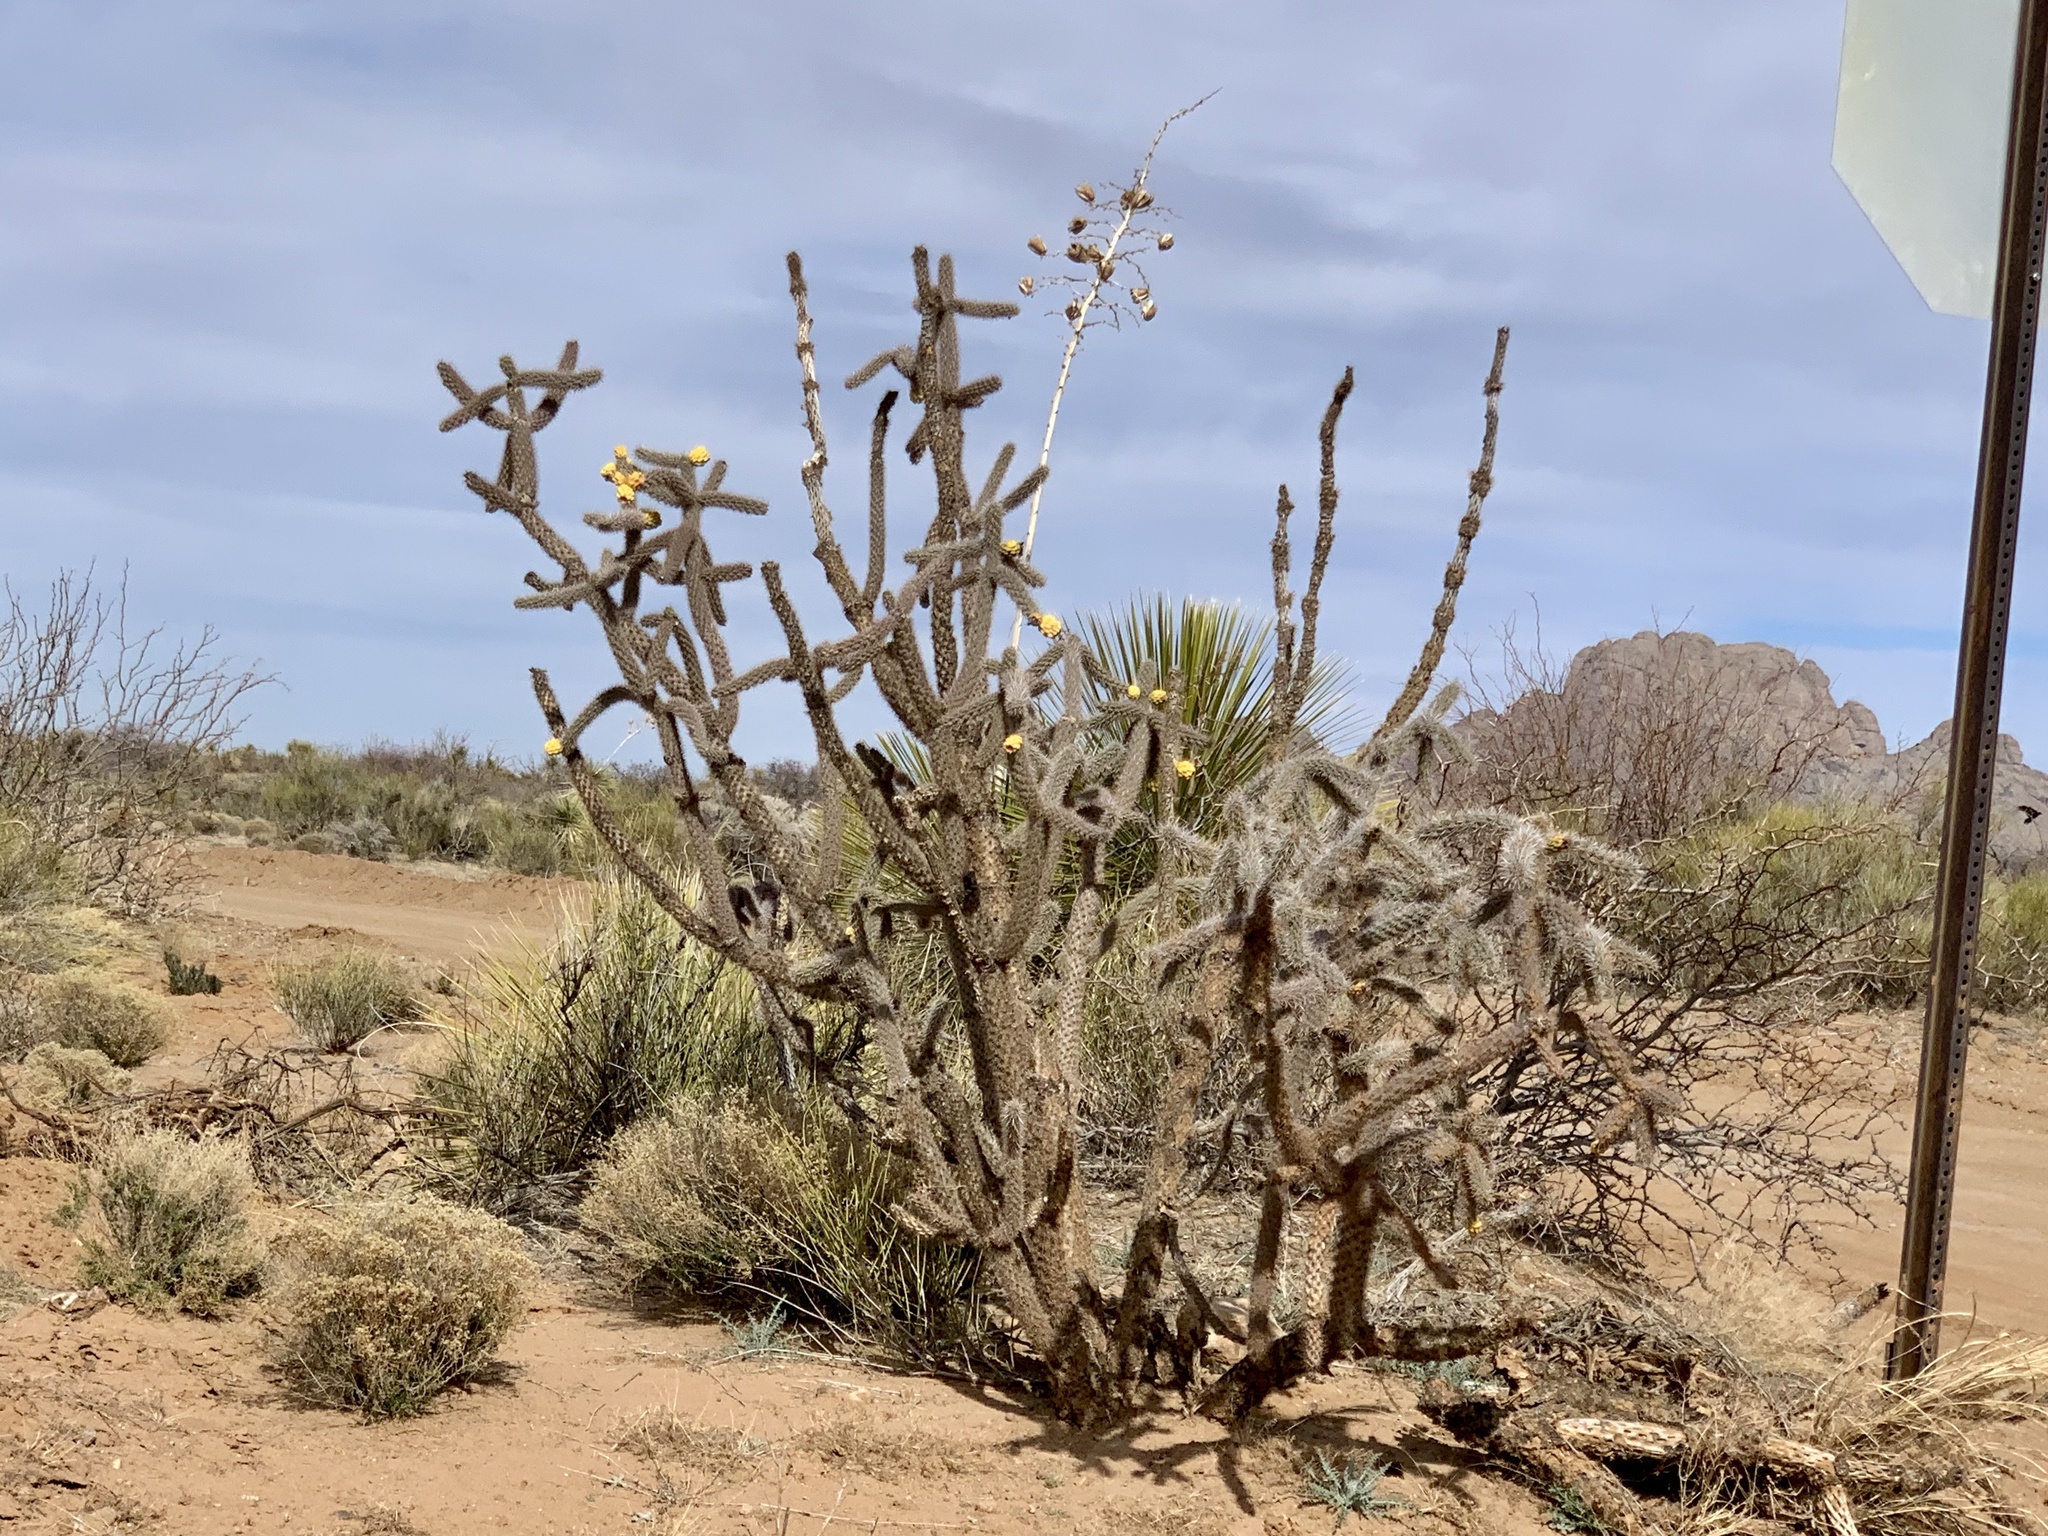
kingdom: Plantae
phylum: Tracheophyta
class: Magnoliopsida
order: Caryophyllales
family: Cactaceae
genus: Cylindropuntia
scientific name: Cylindropuntia imbricata
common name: Candelabrum cactus
